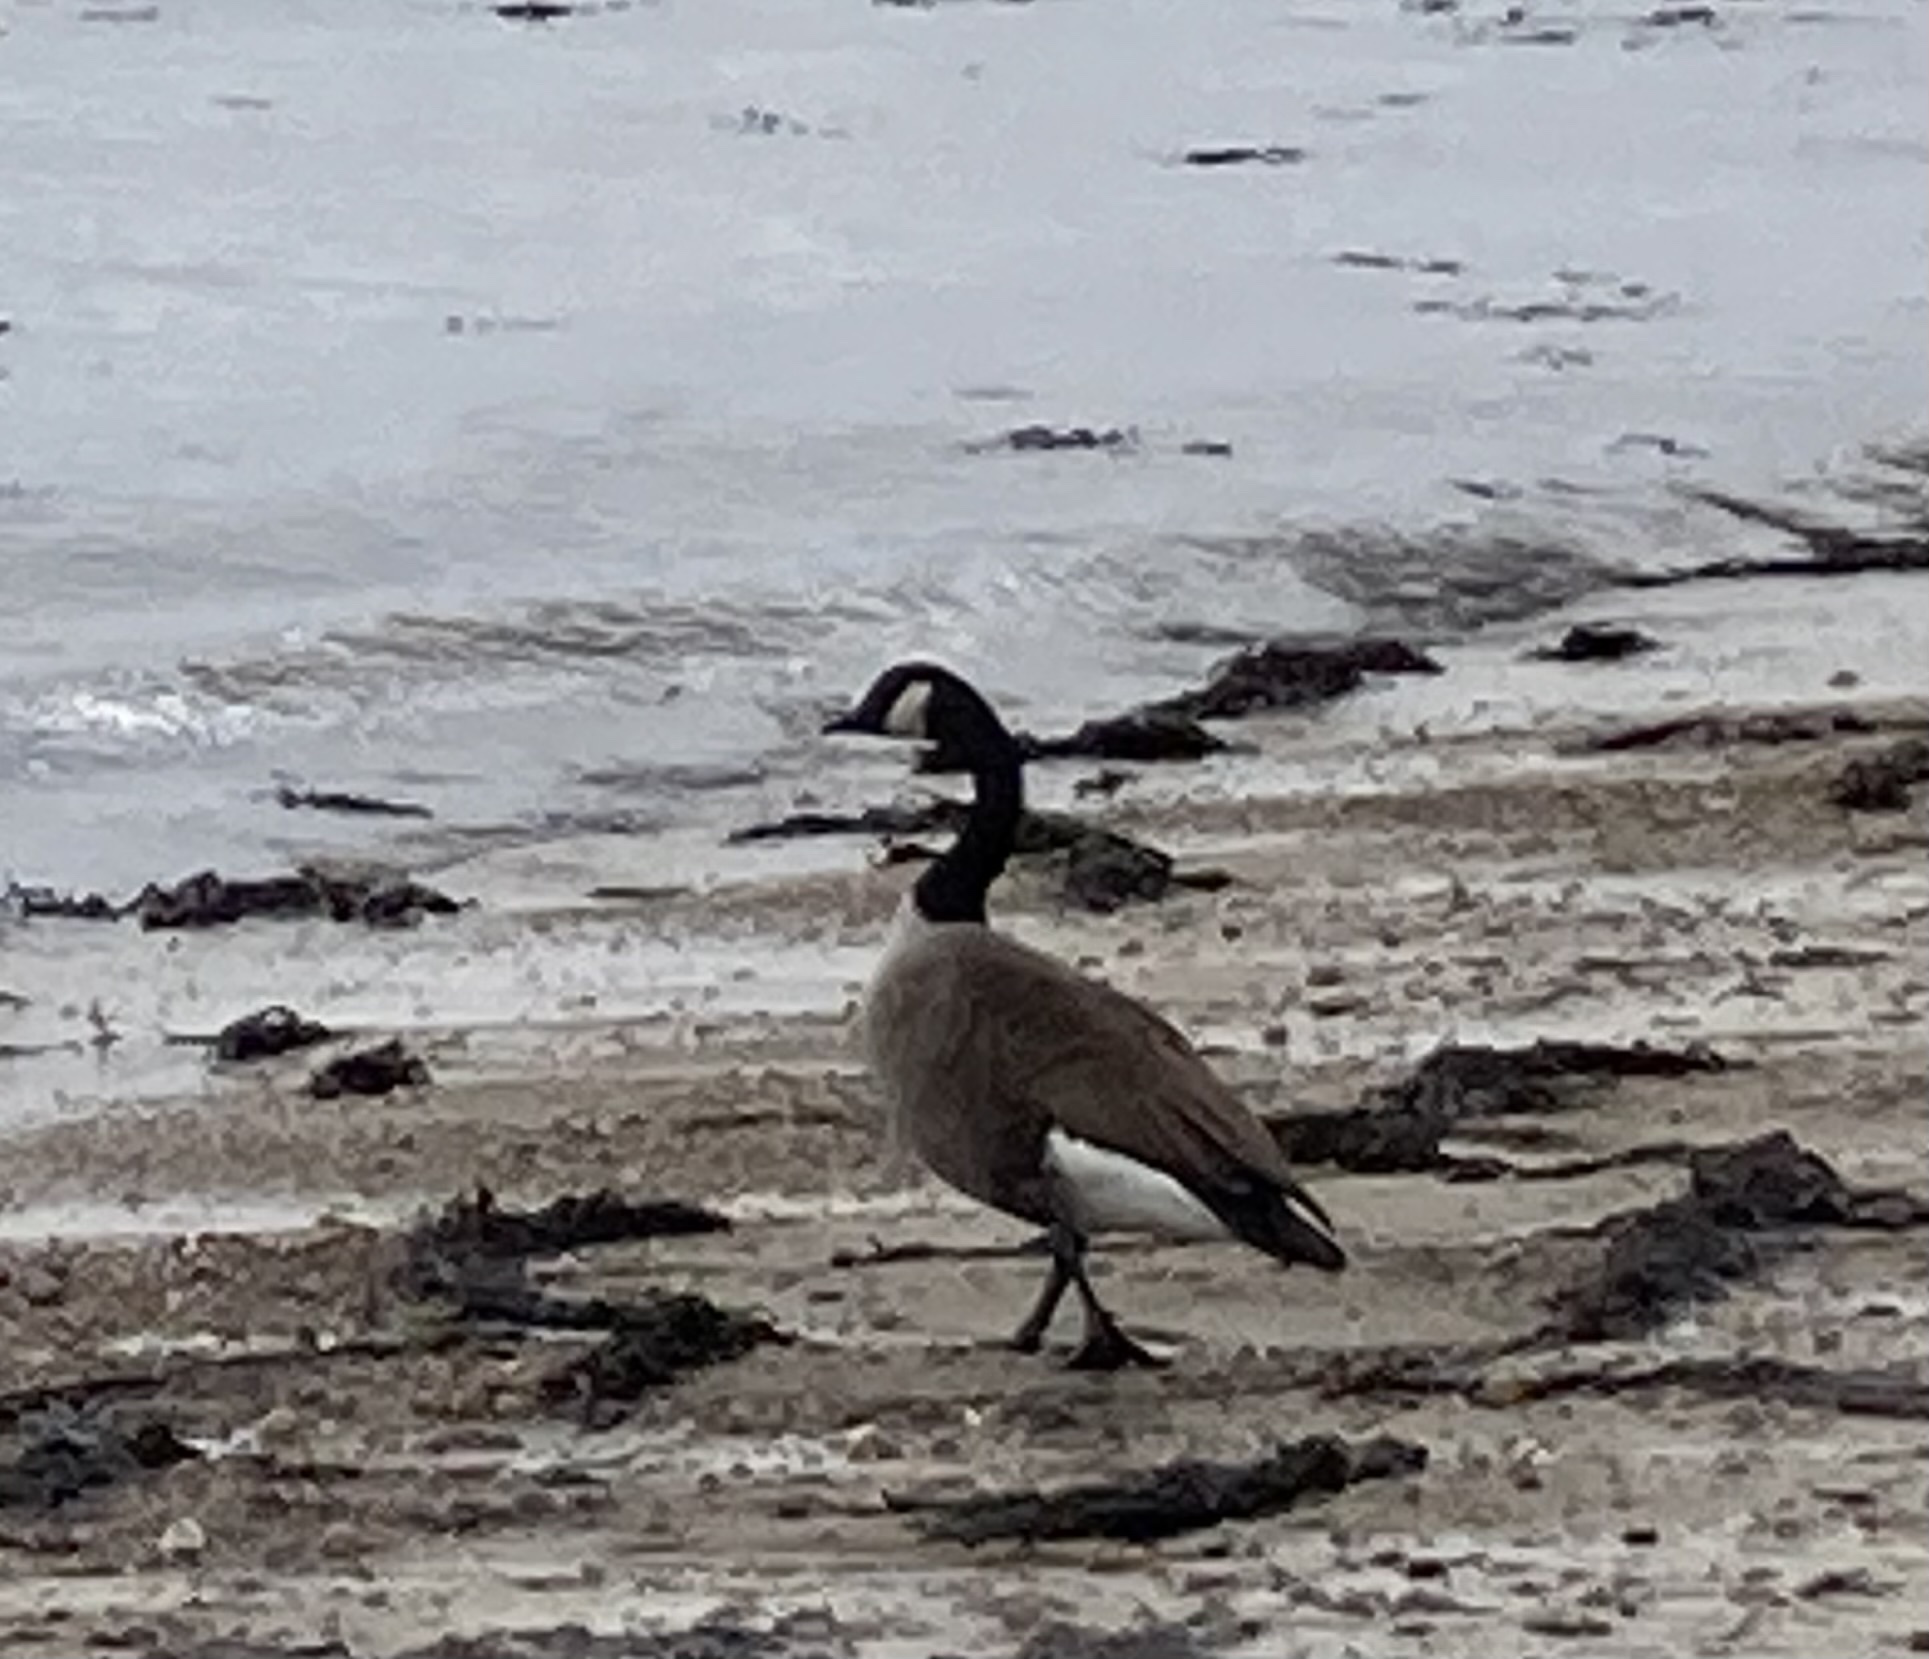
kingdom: Animalia
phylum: Chordata
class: Aves
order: Anseriformes
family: Anatidae
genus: Branta
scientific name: Branta canadensis
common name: Canada goose
